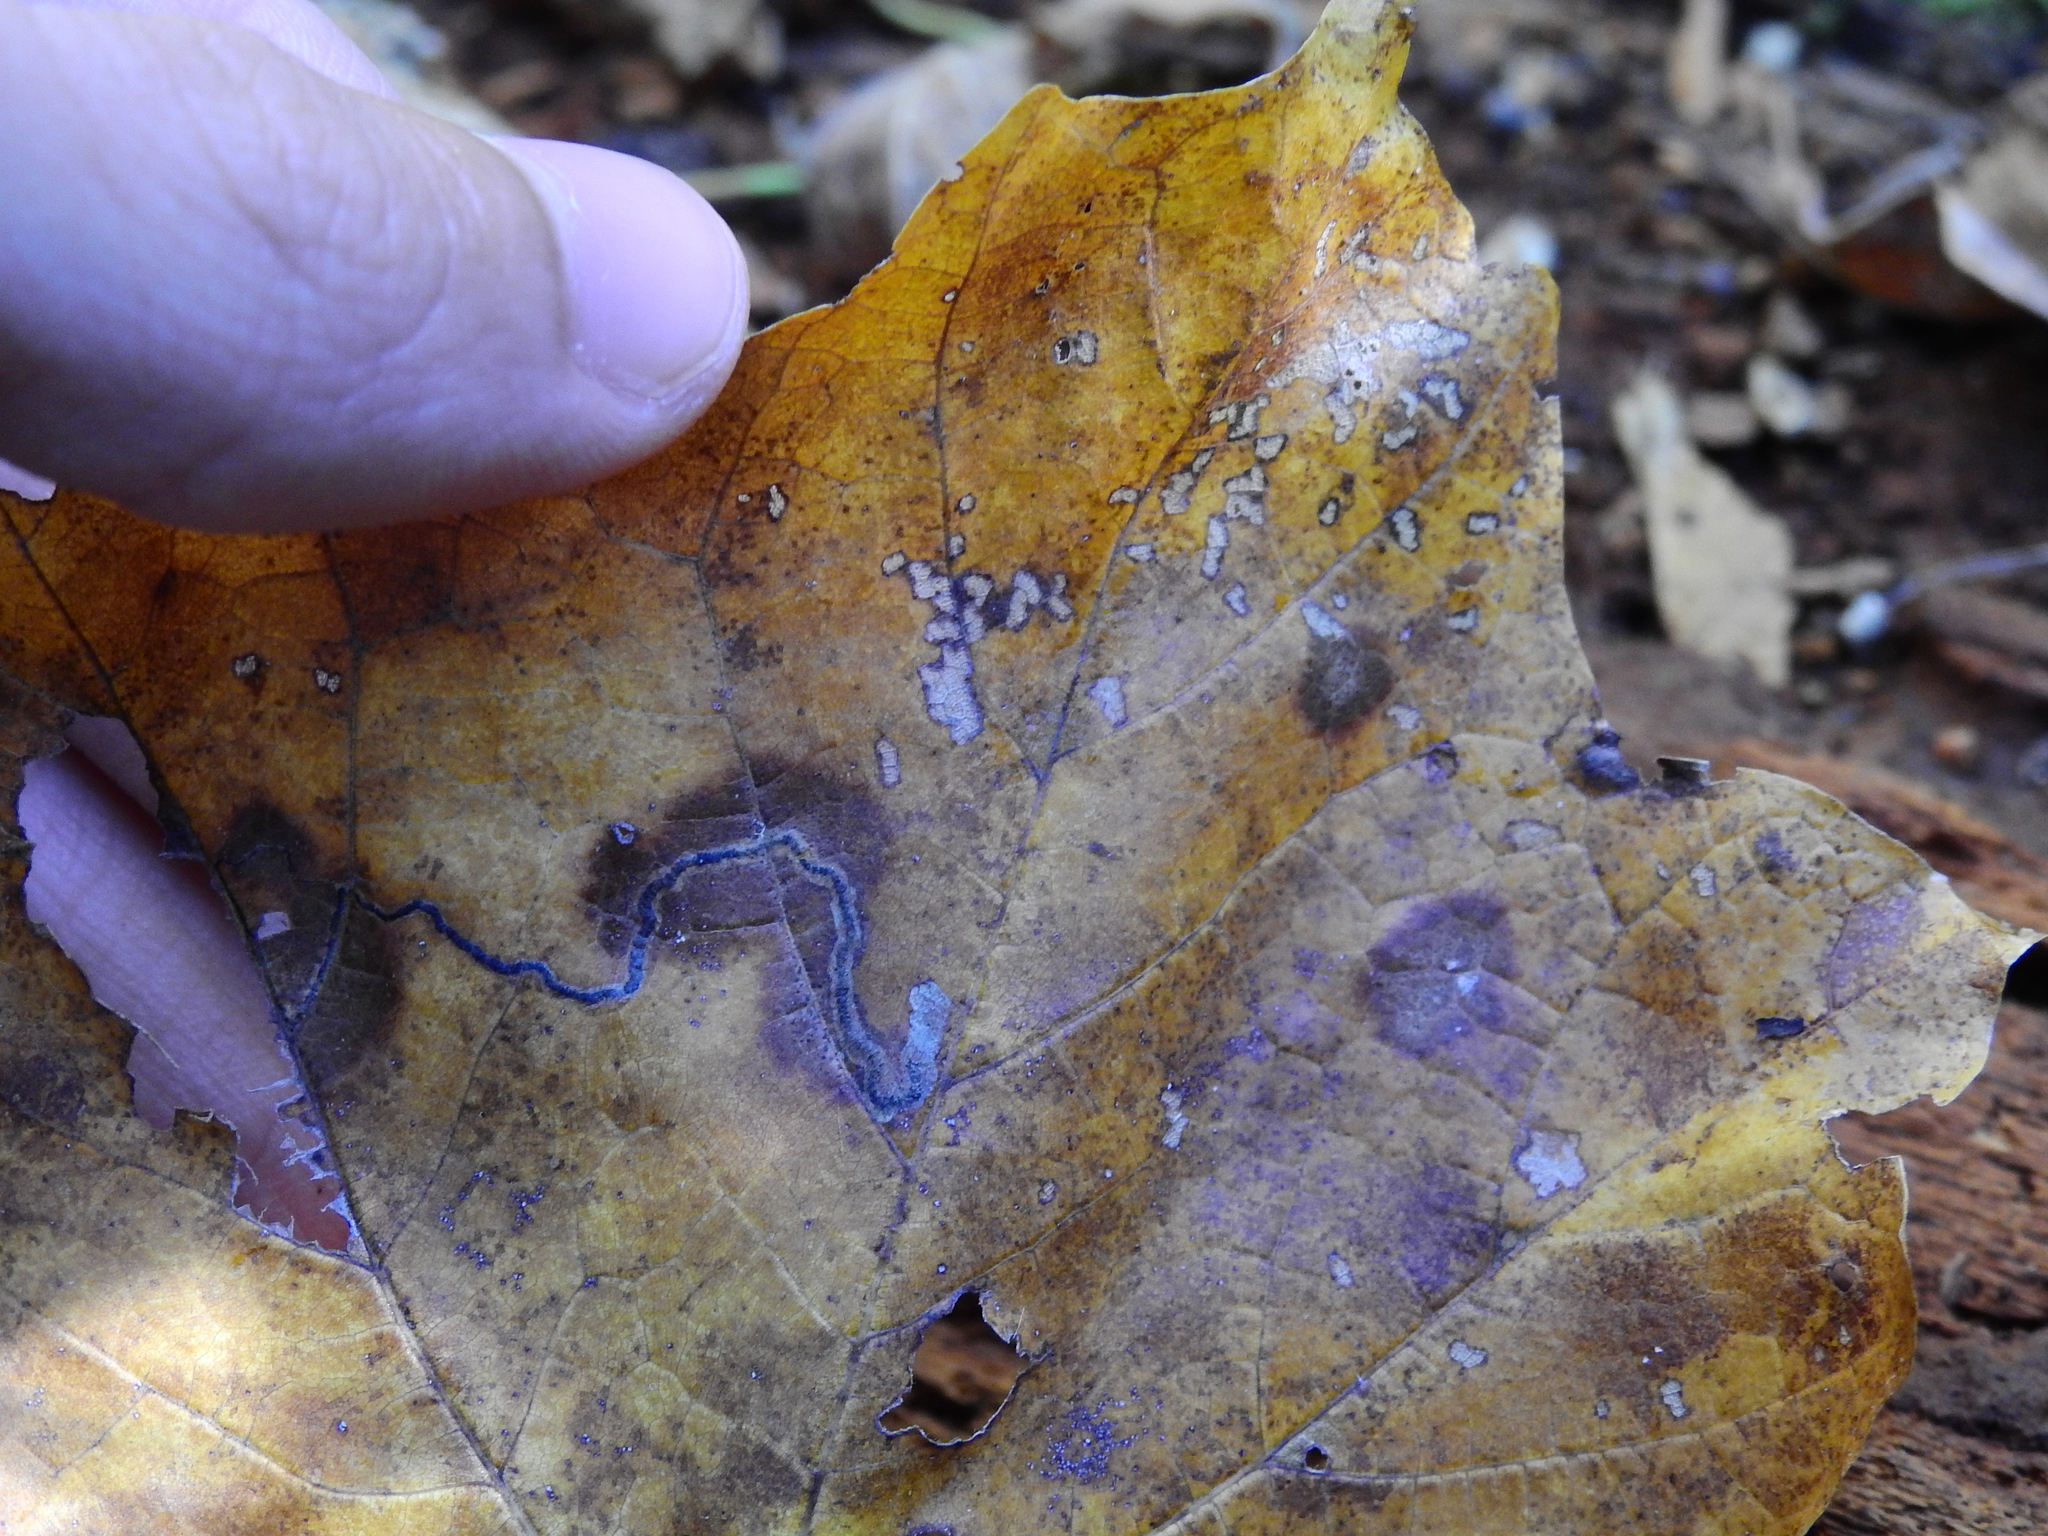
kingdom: Animalia
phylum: Arthropoda
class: Insecta
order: Lepidoptera
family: Nepticulidae
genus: Glaucolepis
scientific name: Glaucolepis saccharella
